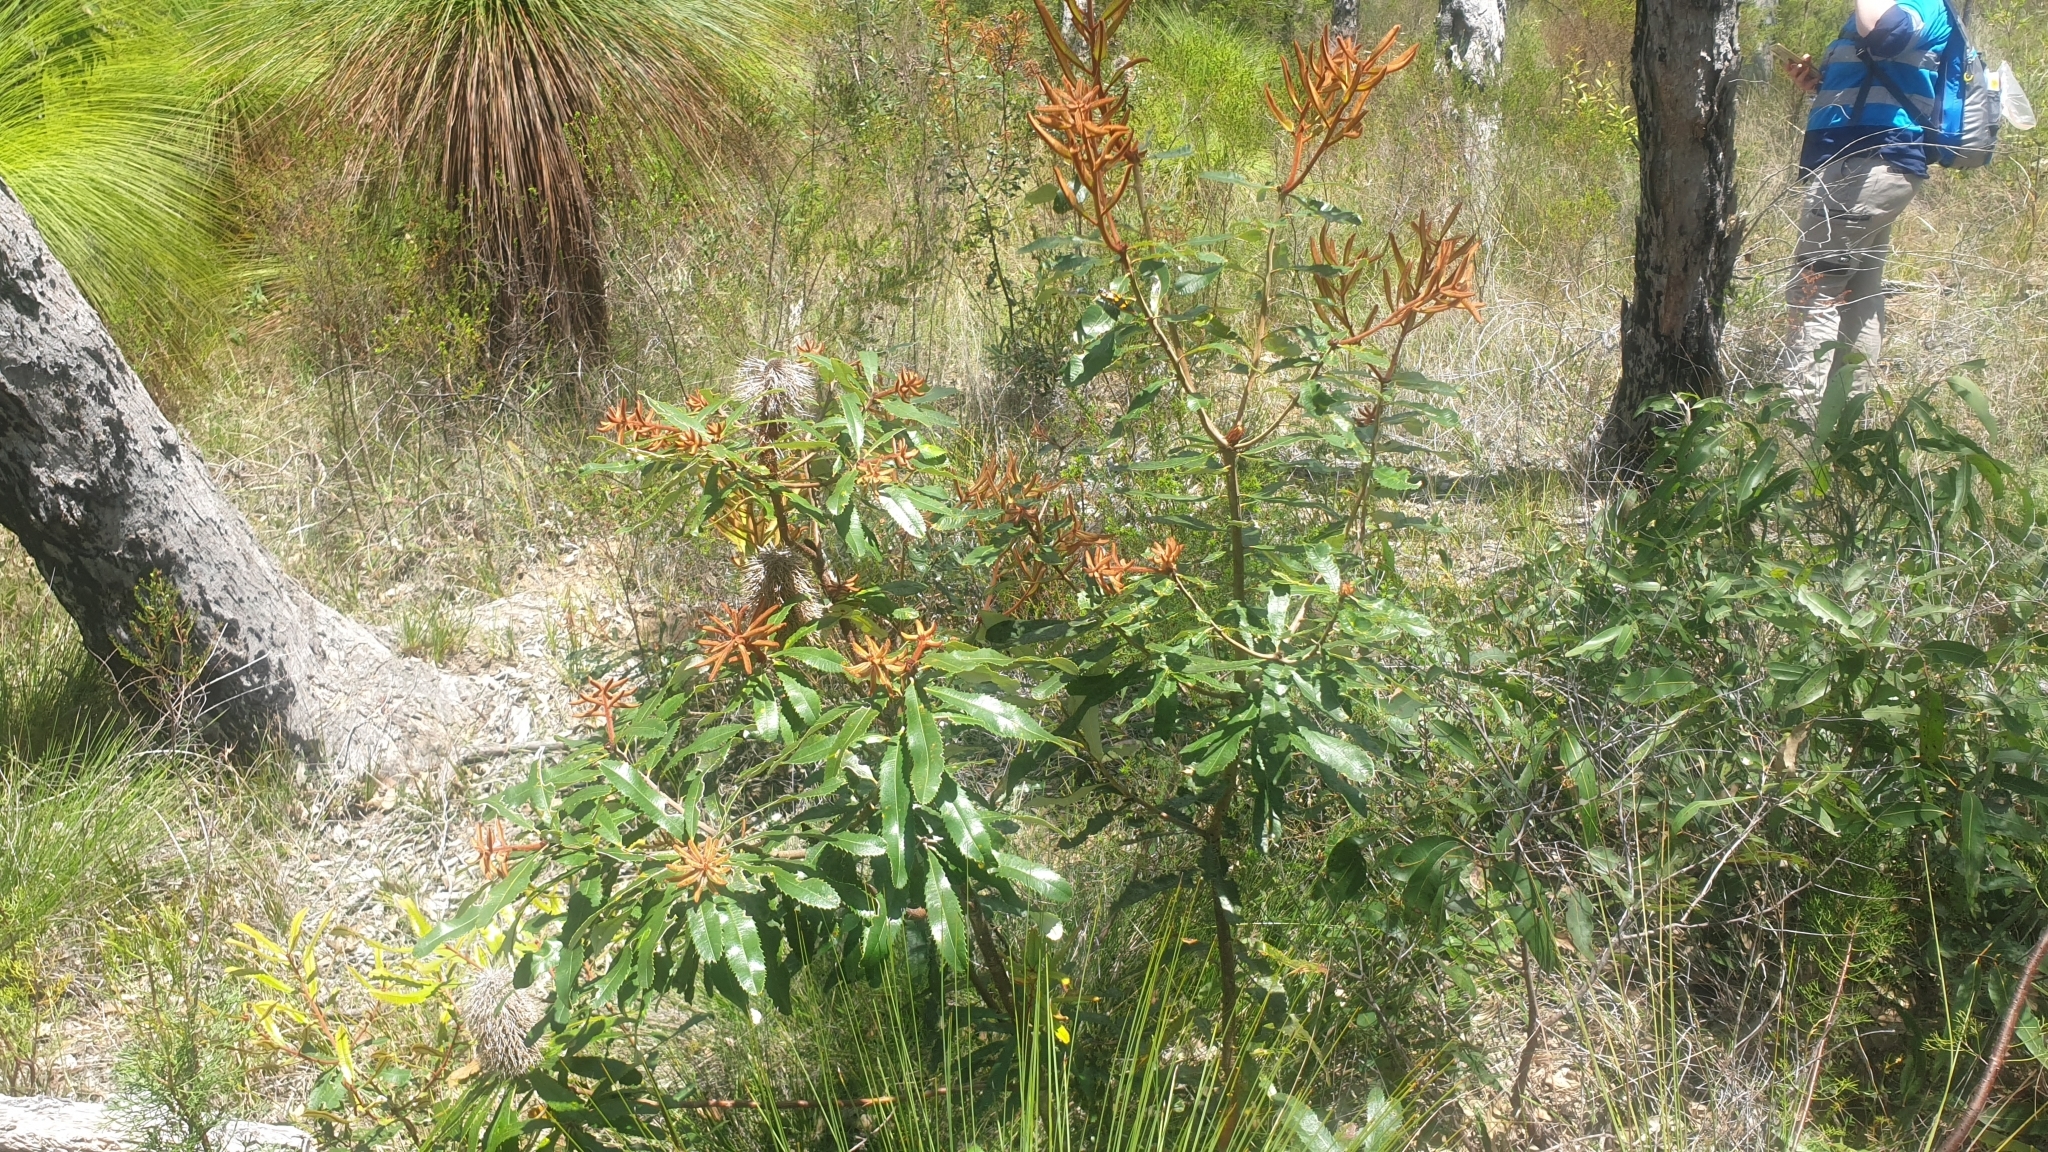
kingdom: Plantae
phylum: Tracheophyta
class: Magnoliopsida
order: Proteales
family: Proteaceae
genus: Banksia
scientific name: Banksia oblongifolia
